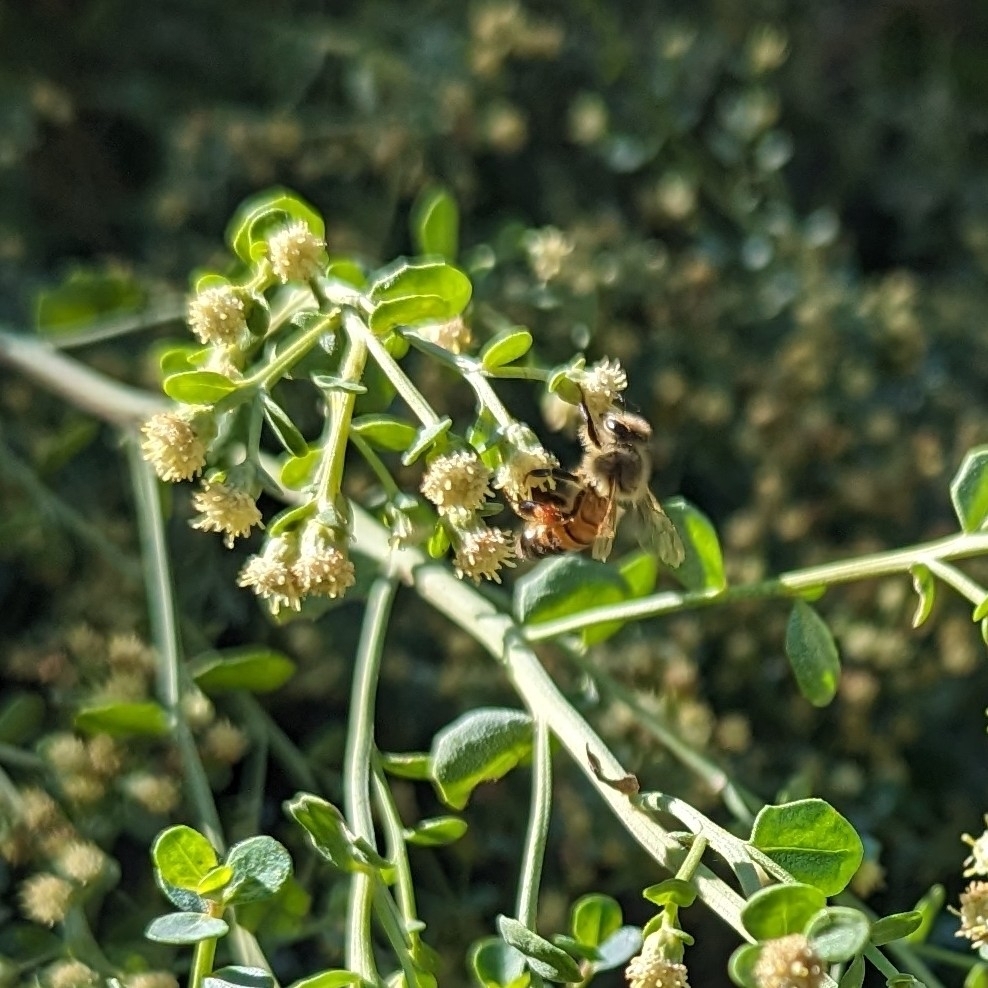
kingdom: Animalia
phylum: Arthropoda
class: Insecta
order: Hymenoptera
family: Apidae
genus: Apis
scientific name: Apis mellifera
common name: Honey bee
